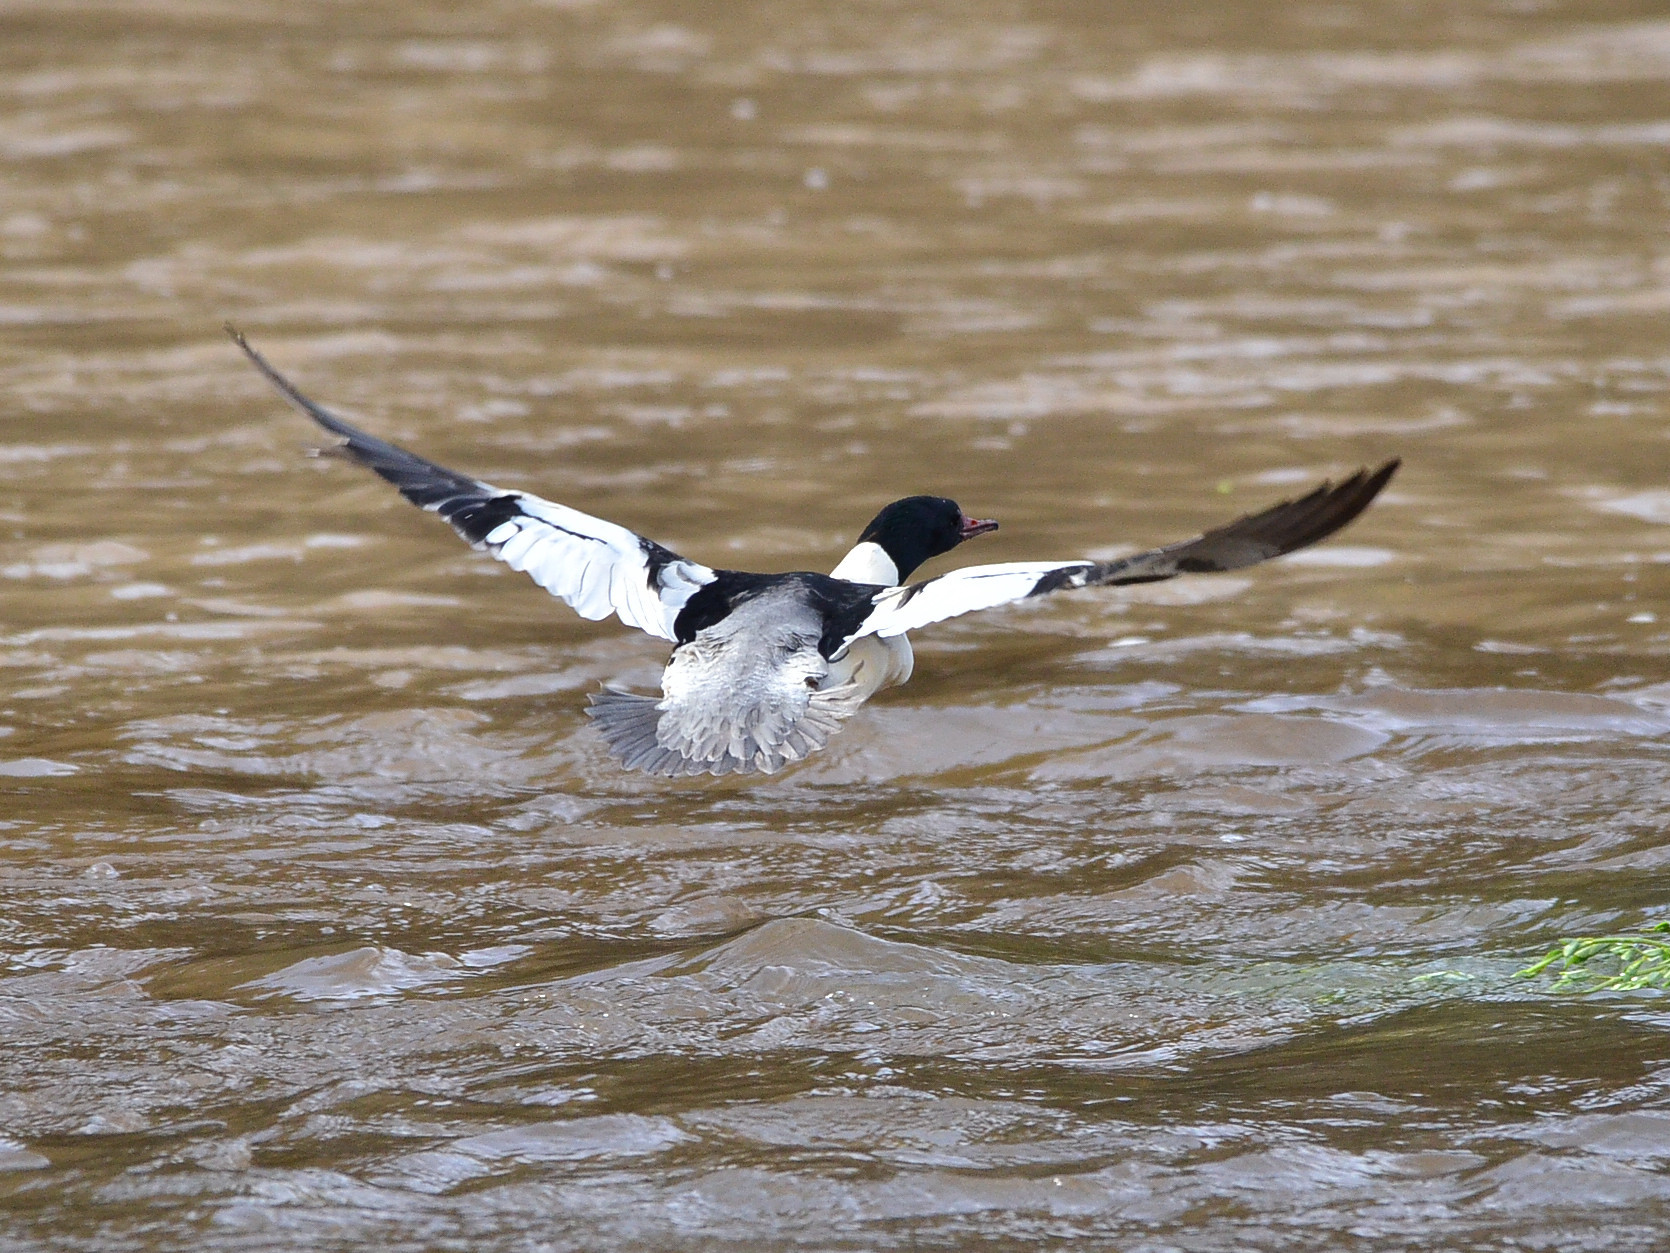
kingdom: Animalia
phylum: Chordata
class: Aves
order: Anseriformes
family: Anatidae
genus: Mergus
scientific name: Mergus merganser
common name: Common merganser
